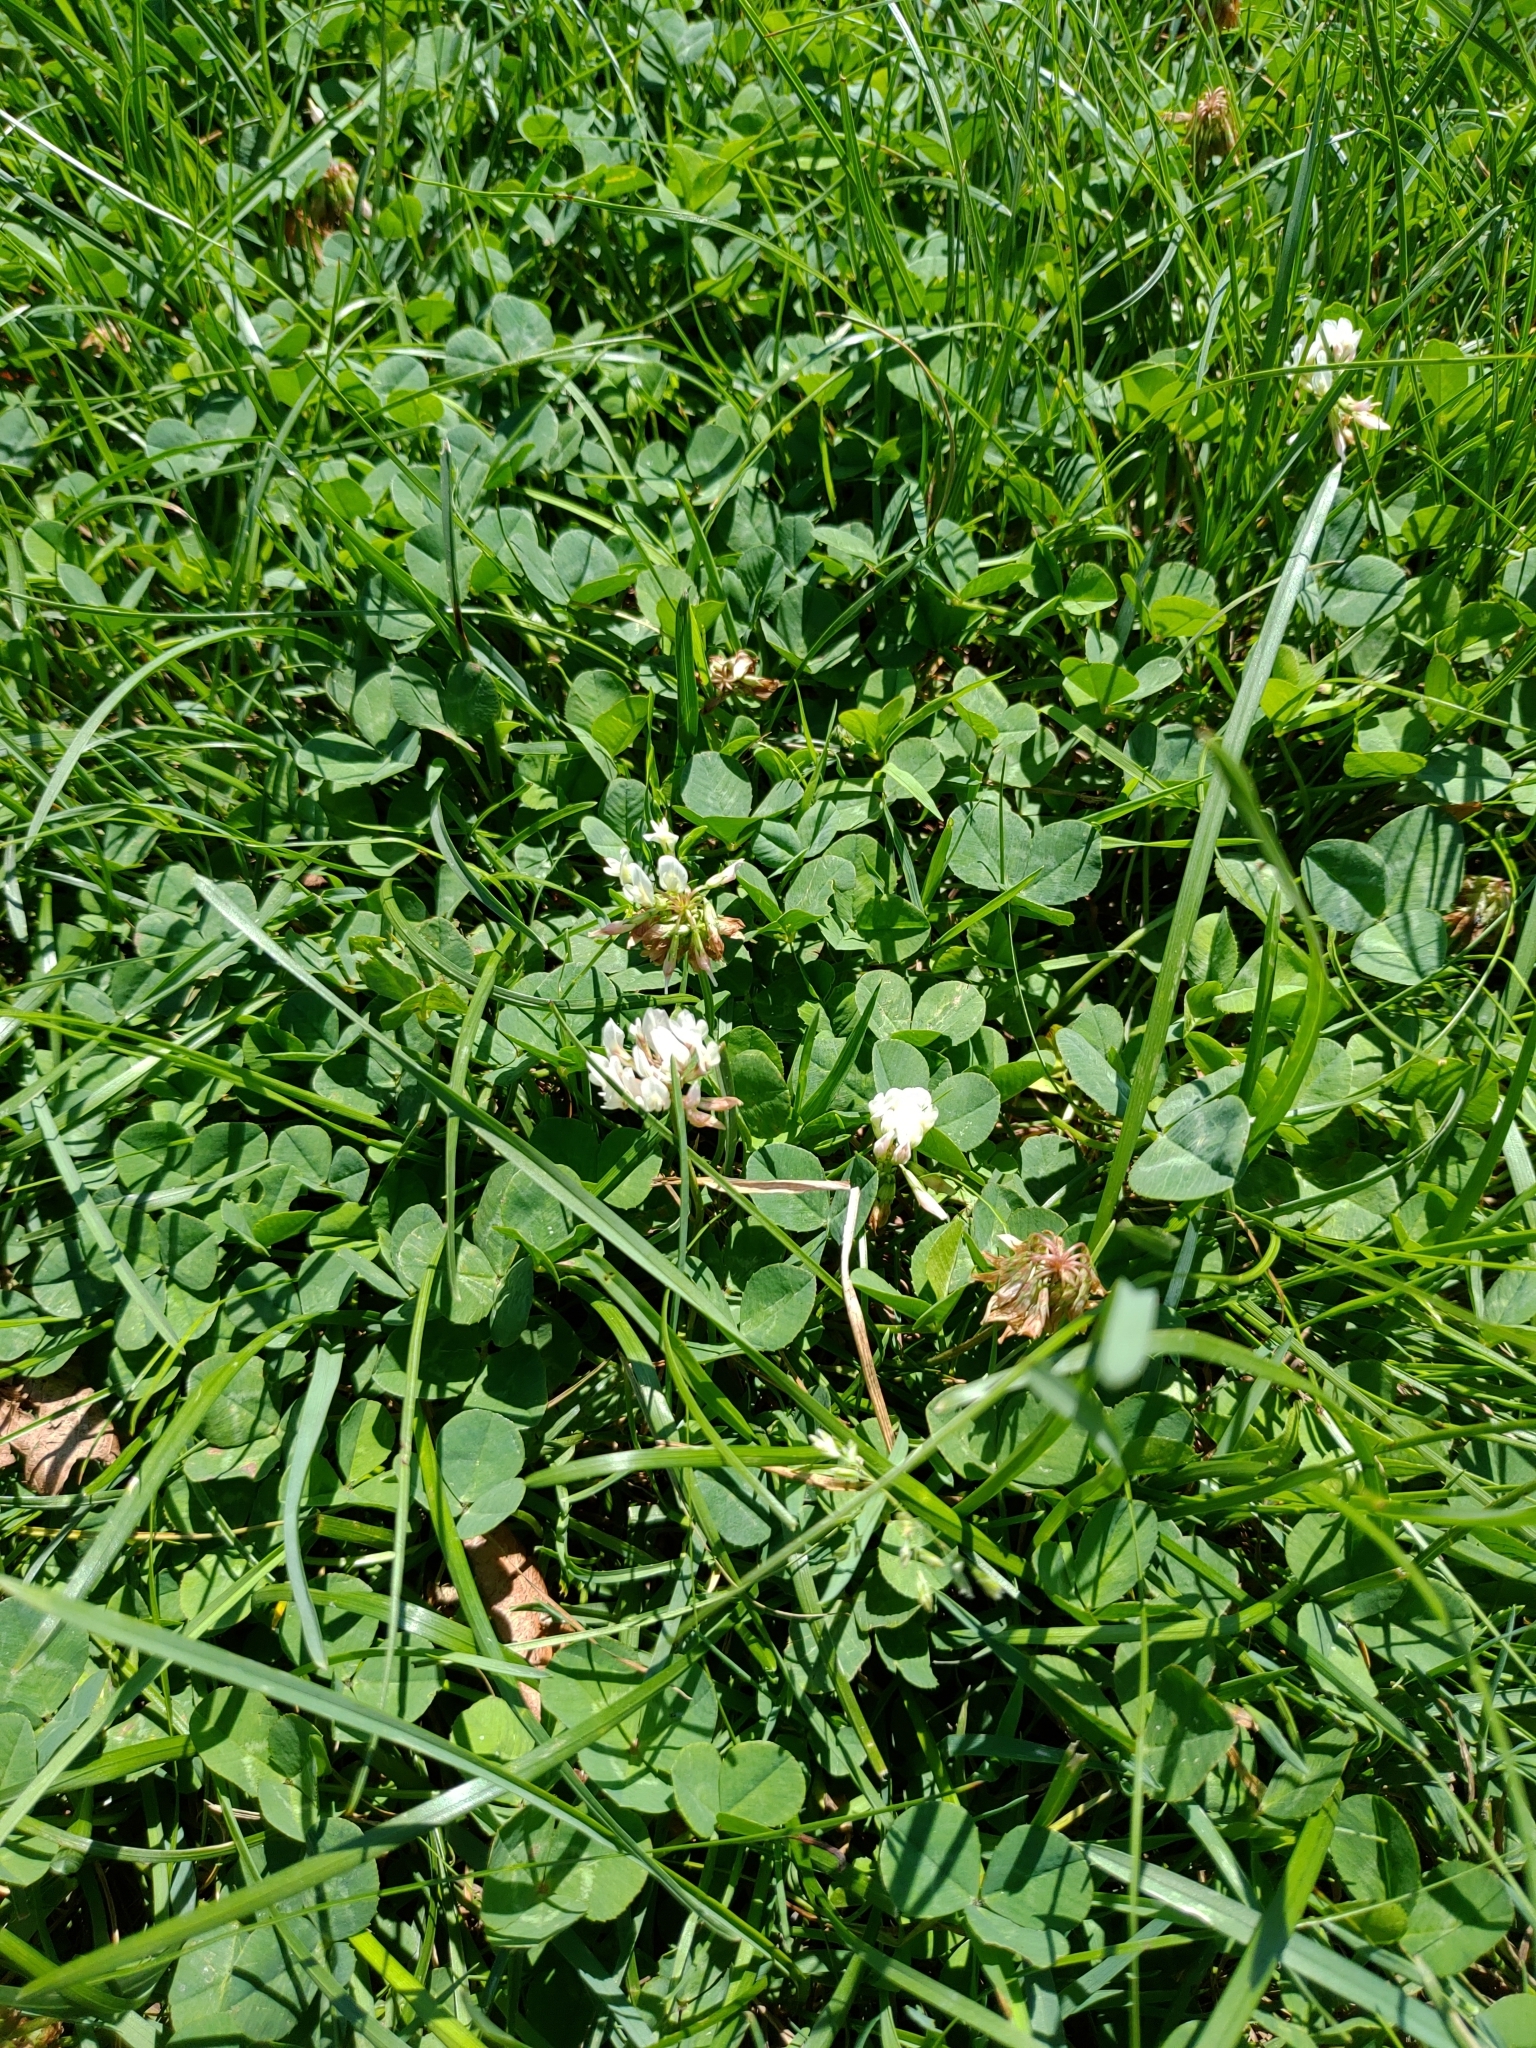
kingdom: Plantae
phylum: Tracheophyta
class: Magnoliopsida
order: Fabales
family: Fabaceae
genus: Trifolium
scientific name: Trifolium repens
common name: White clover
